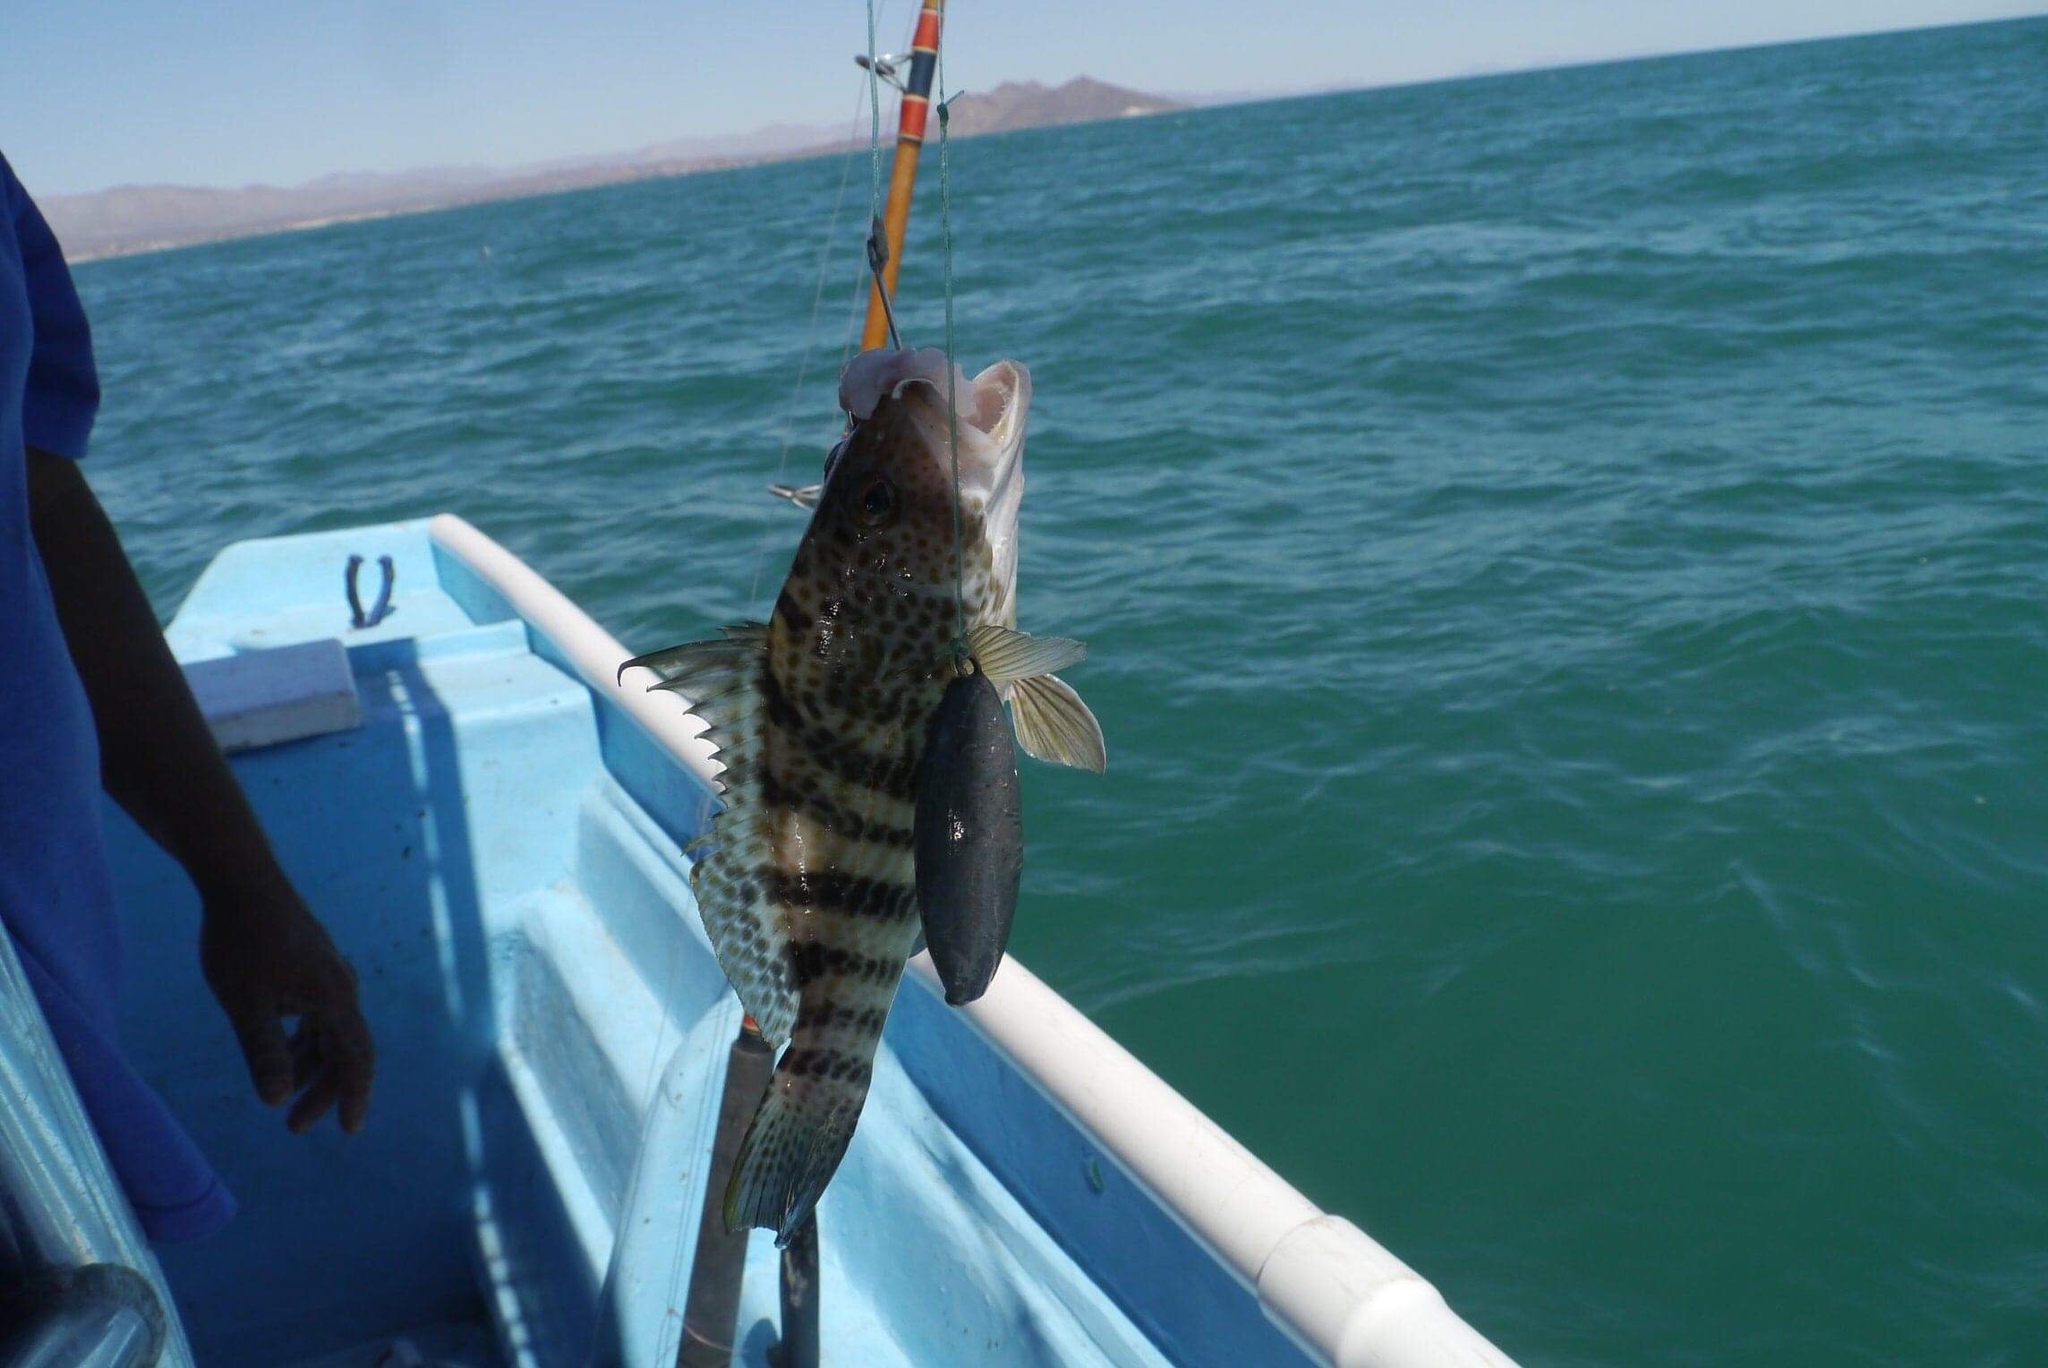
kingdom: Animalia
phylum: Chordata
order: Perciformes
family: Serranidae
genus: Paralabrax
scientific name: Paralabrax maculatofasciatus
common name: Spotted sand bass
